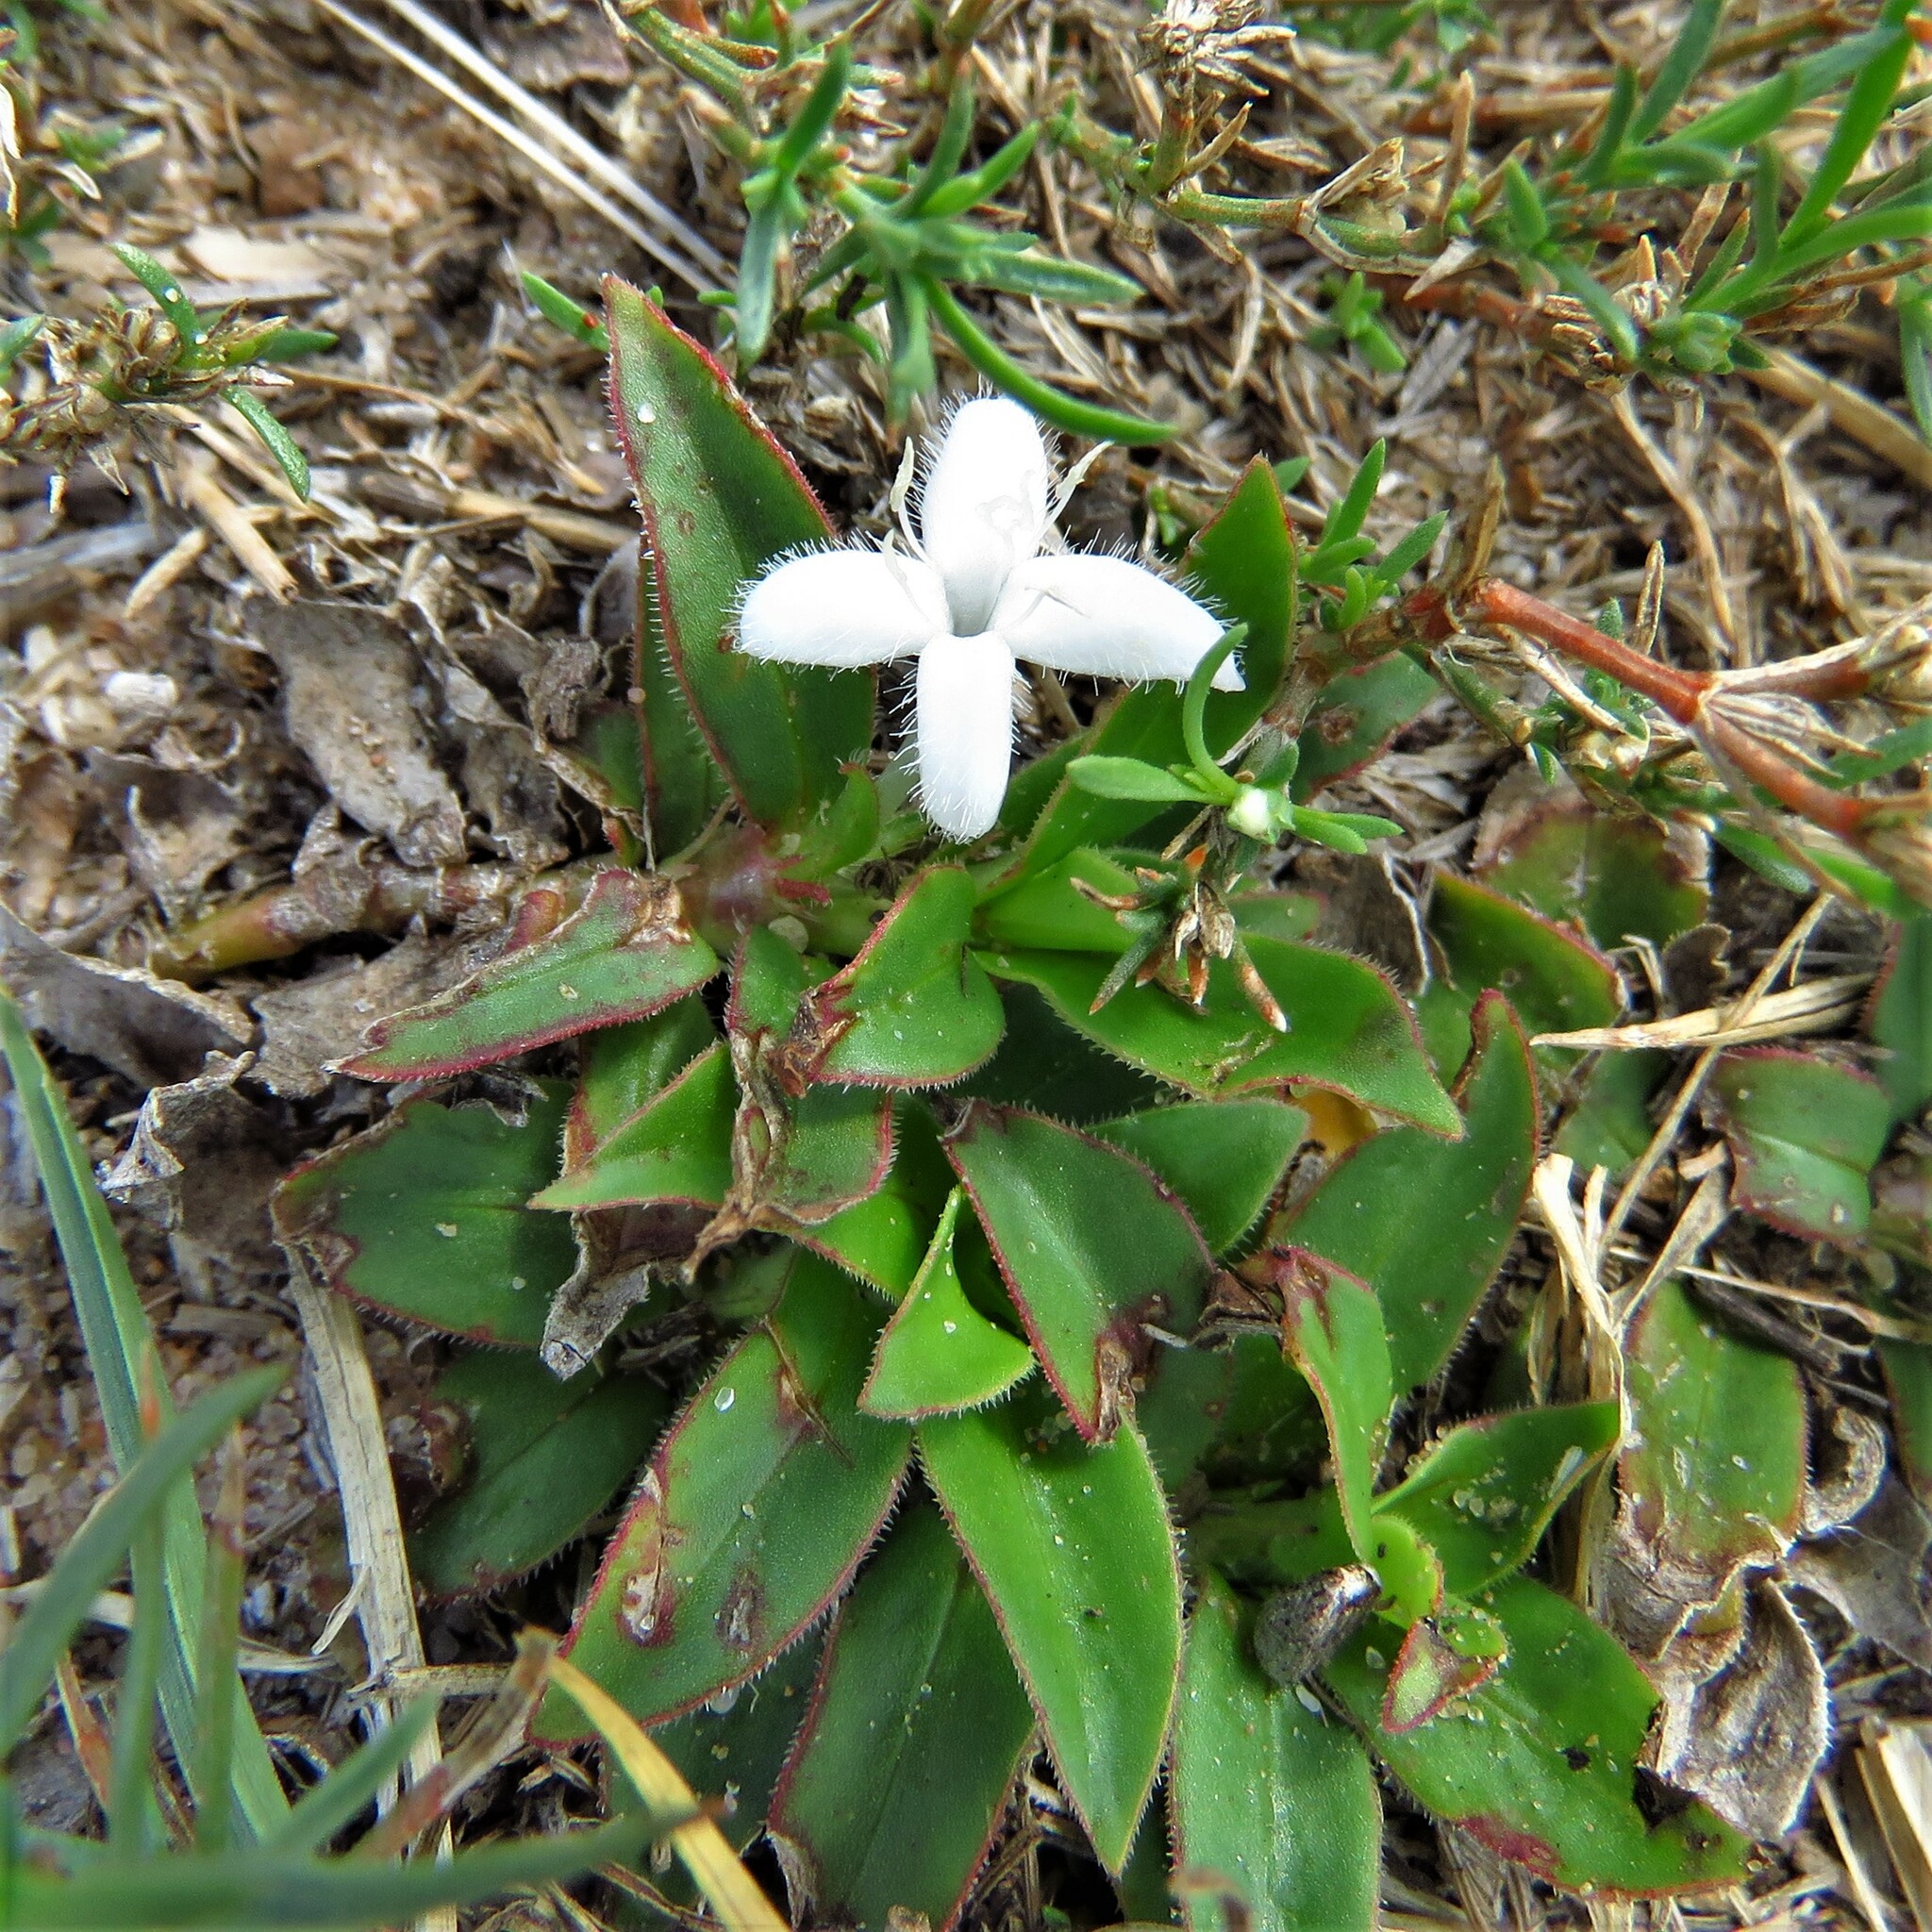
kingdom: Plantae
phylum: Tracheophyta
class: Magnoliopsida
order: Gentianales
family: Rubiaceae
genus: Diodia
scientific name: Diodia virginiana
